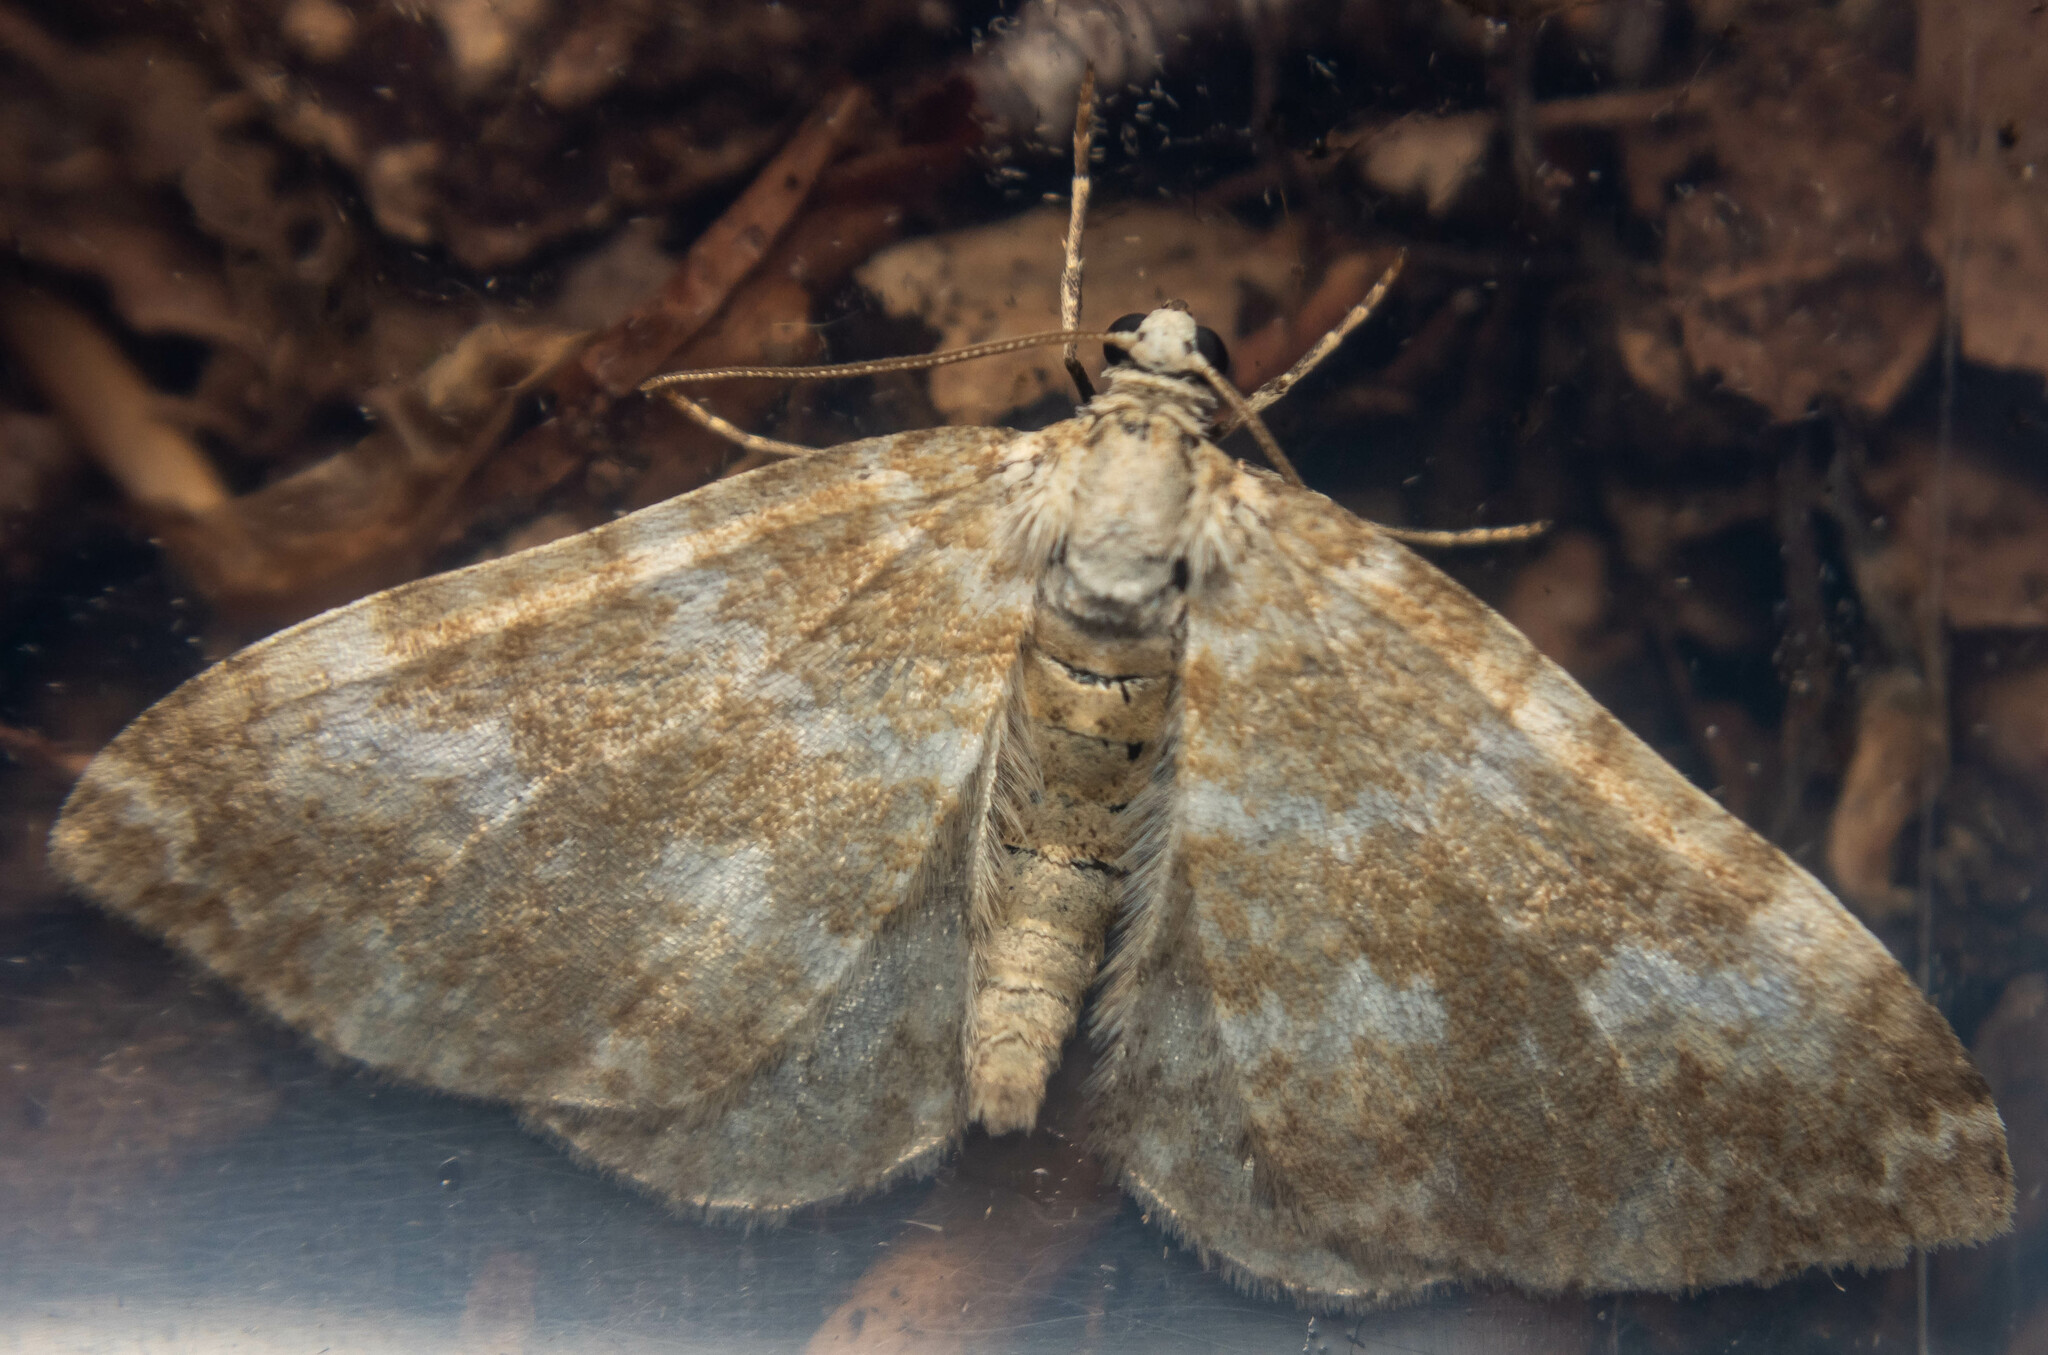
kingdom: Animalia
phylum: Arthropoda
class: Insecta
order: Lepidoptera
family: Geometridae
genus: Perizoma
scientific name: Perizoma flavofasciata
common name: Sandy carpet
